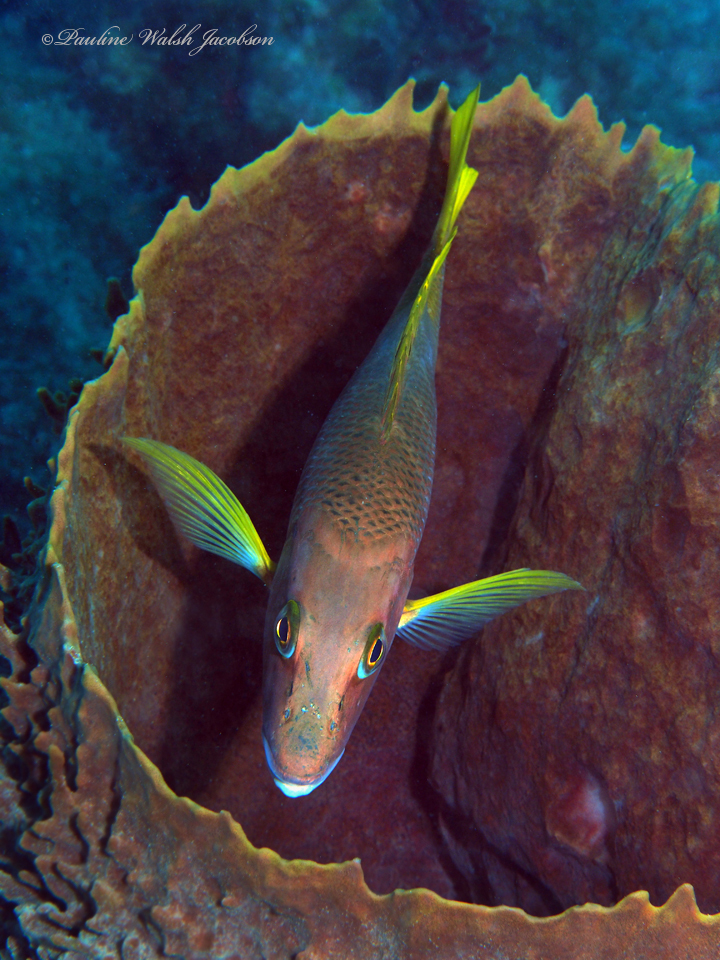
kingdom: Animalia
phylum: Chordata
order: Perciformes
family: Lutjanidae
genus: Lutjanus
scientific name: Lutjanus apodus
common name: Schoolmaster
